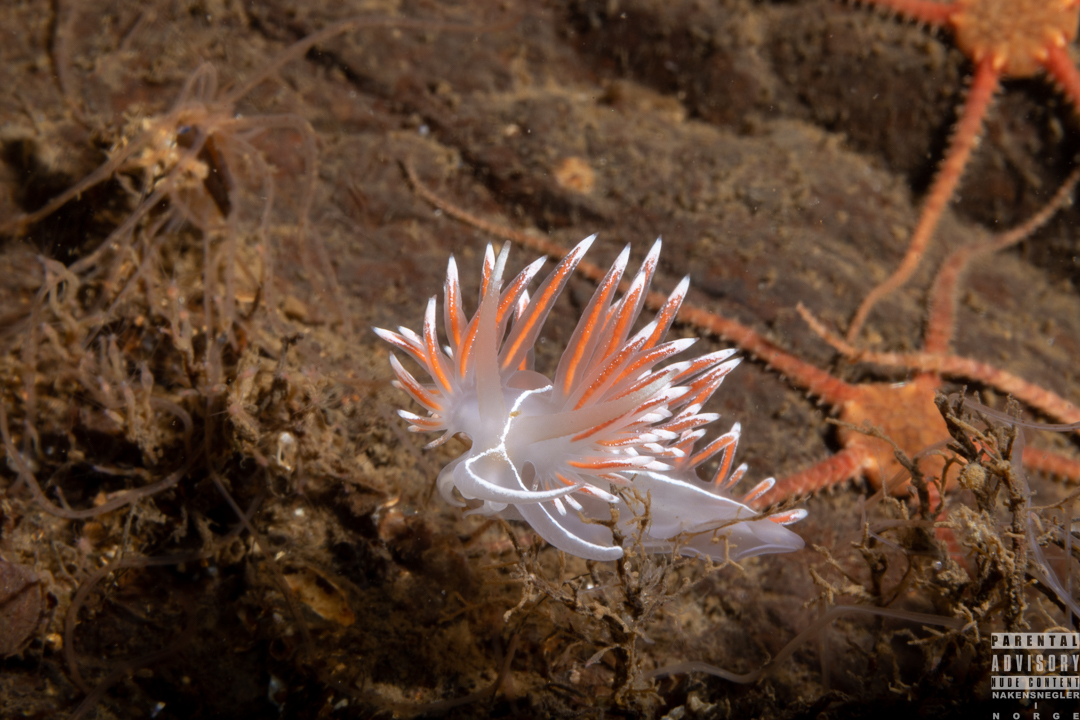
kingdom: Animalia
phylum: Mollusca
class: Gastropoda
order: Nudibranchia
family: Coryphellidae
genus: Coryphella
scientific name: Coryphella lineata
